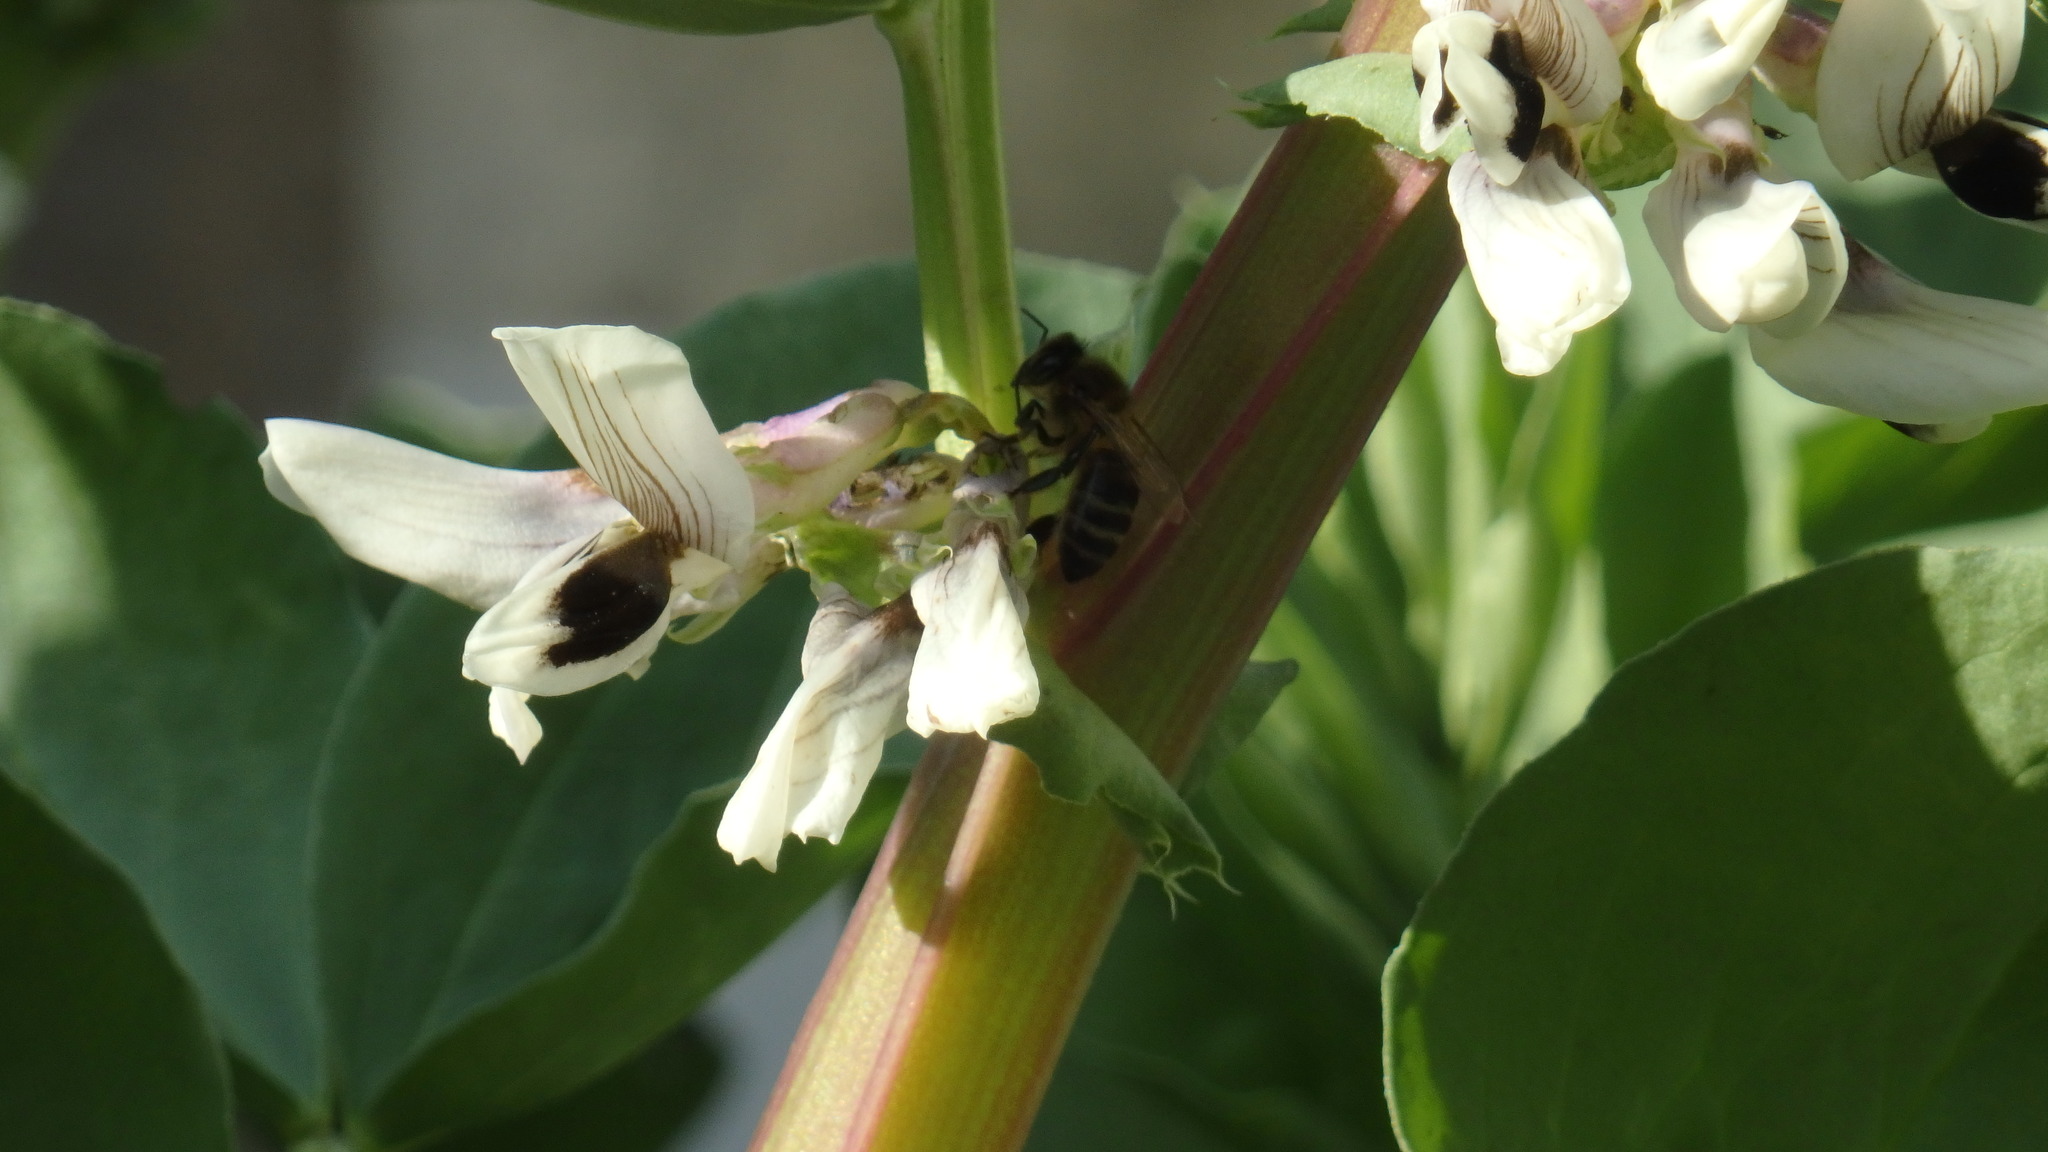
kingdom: Animalia
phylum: Arthropoda
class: Insecta
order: Hymenoptera
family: Apidae
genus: Apis
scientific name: Apis mellifera
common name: Honey bee
